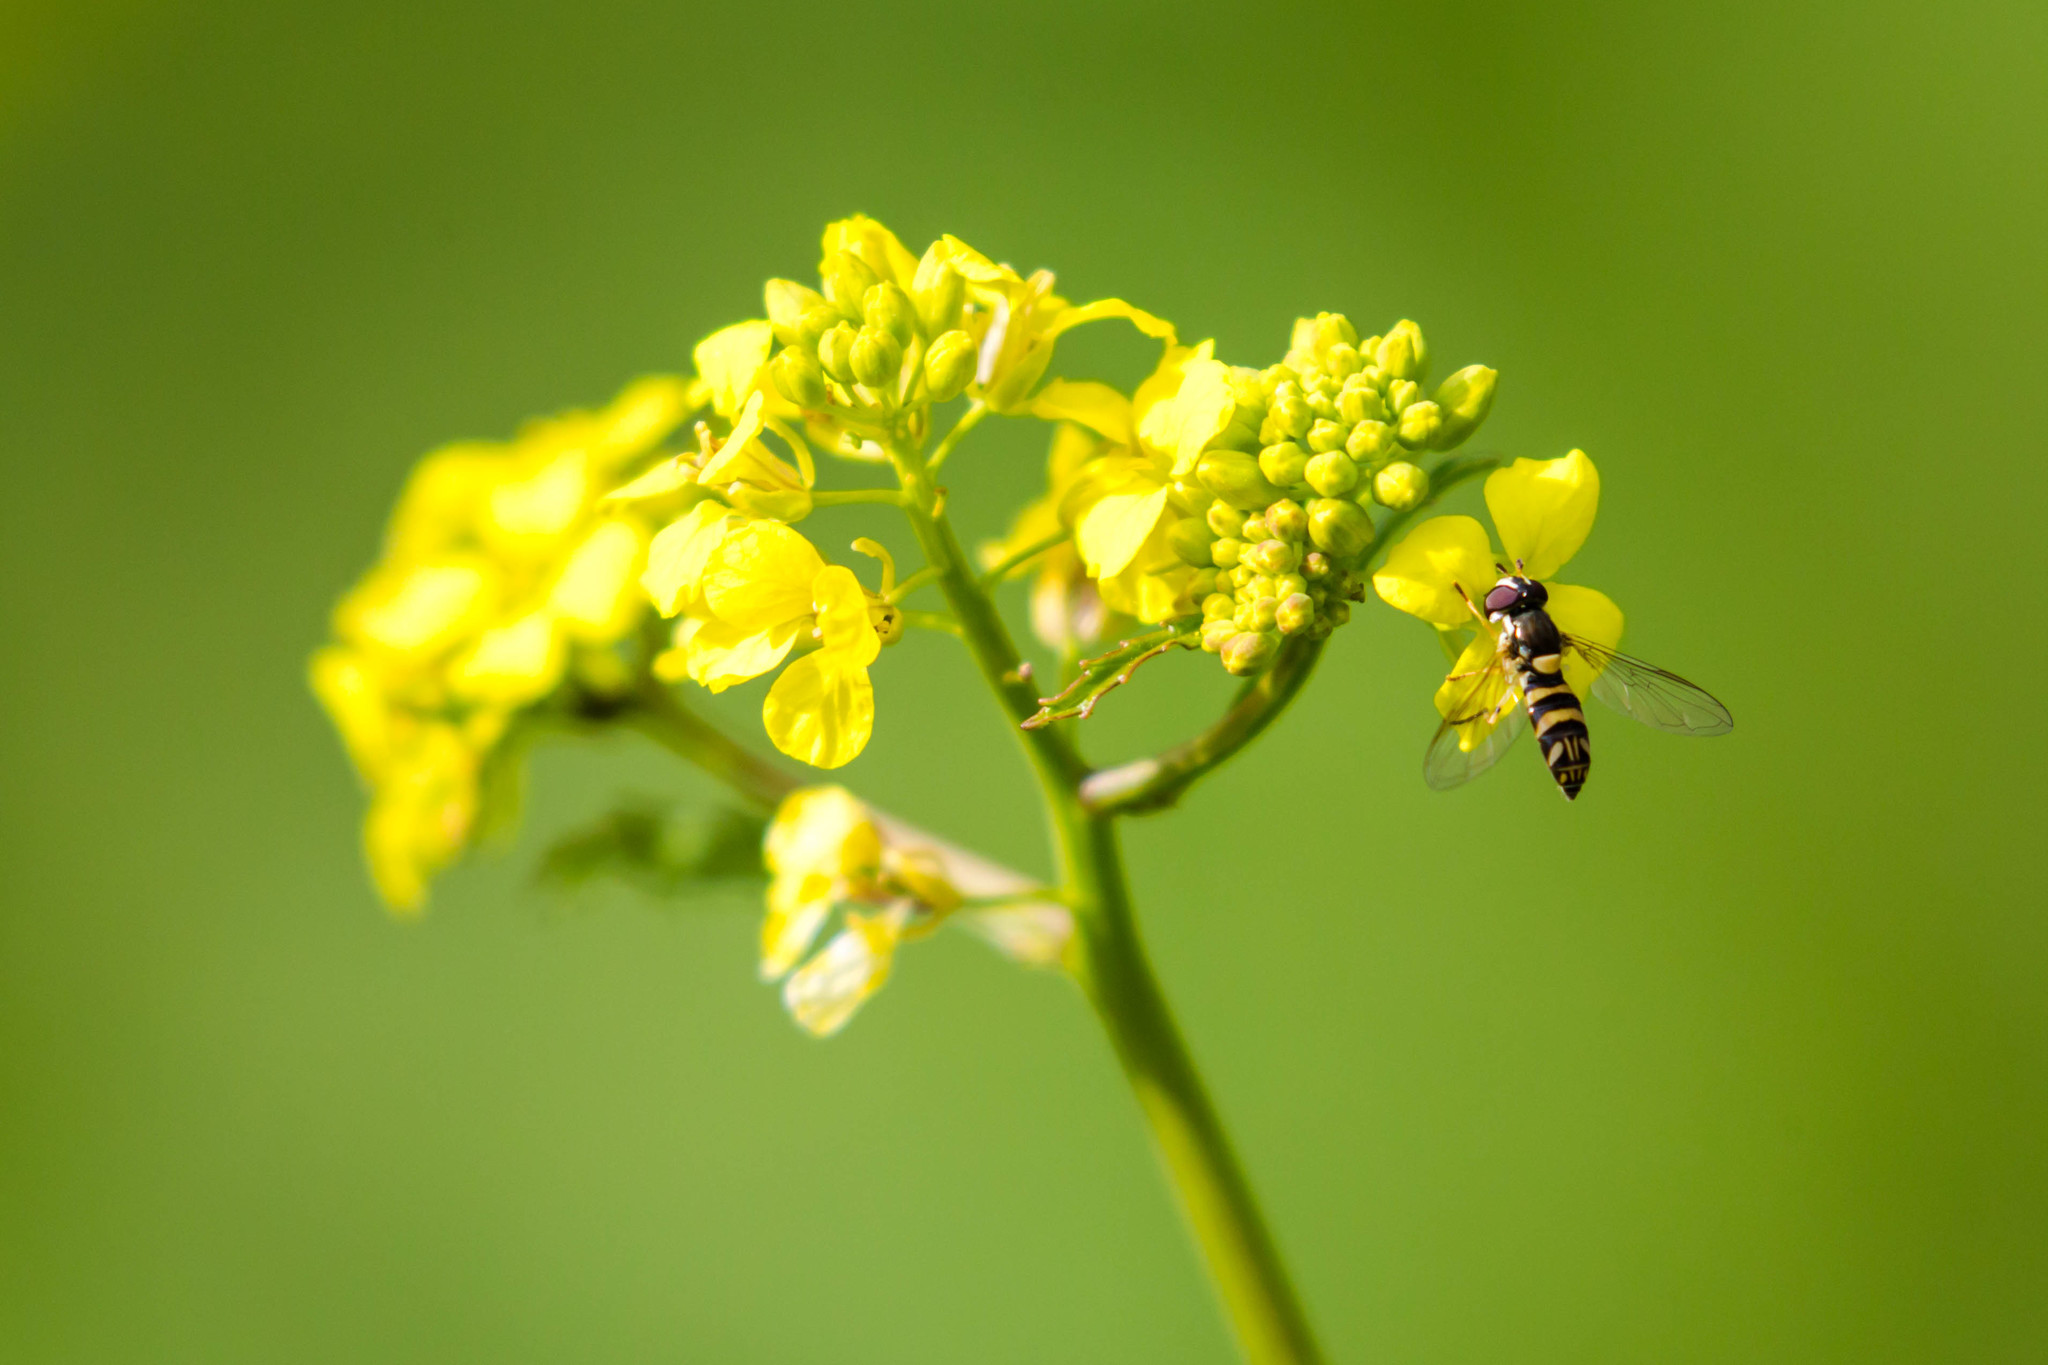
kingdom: Animalia
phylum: Arthropoda
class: Insecta
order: Diptera
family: Syrphidae
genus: Allograpta
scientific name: Allograpta exotica
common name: Syrphid fly
